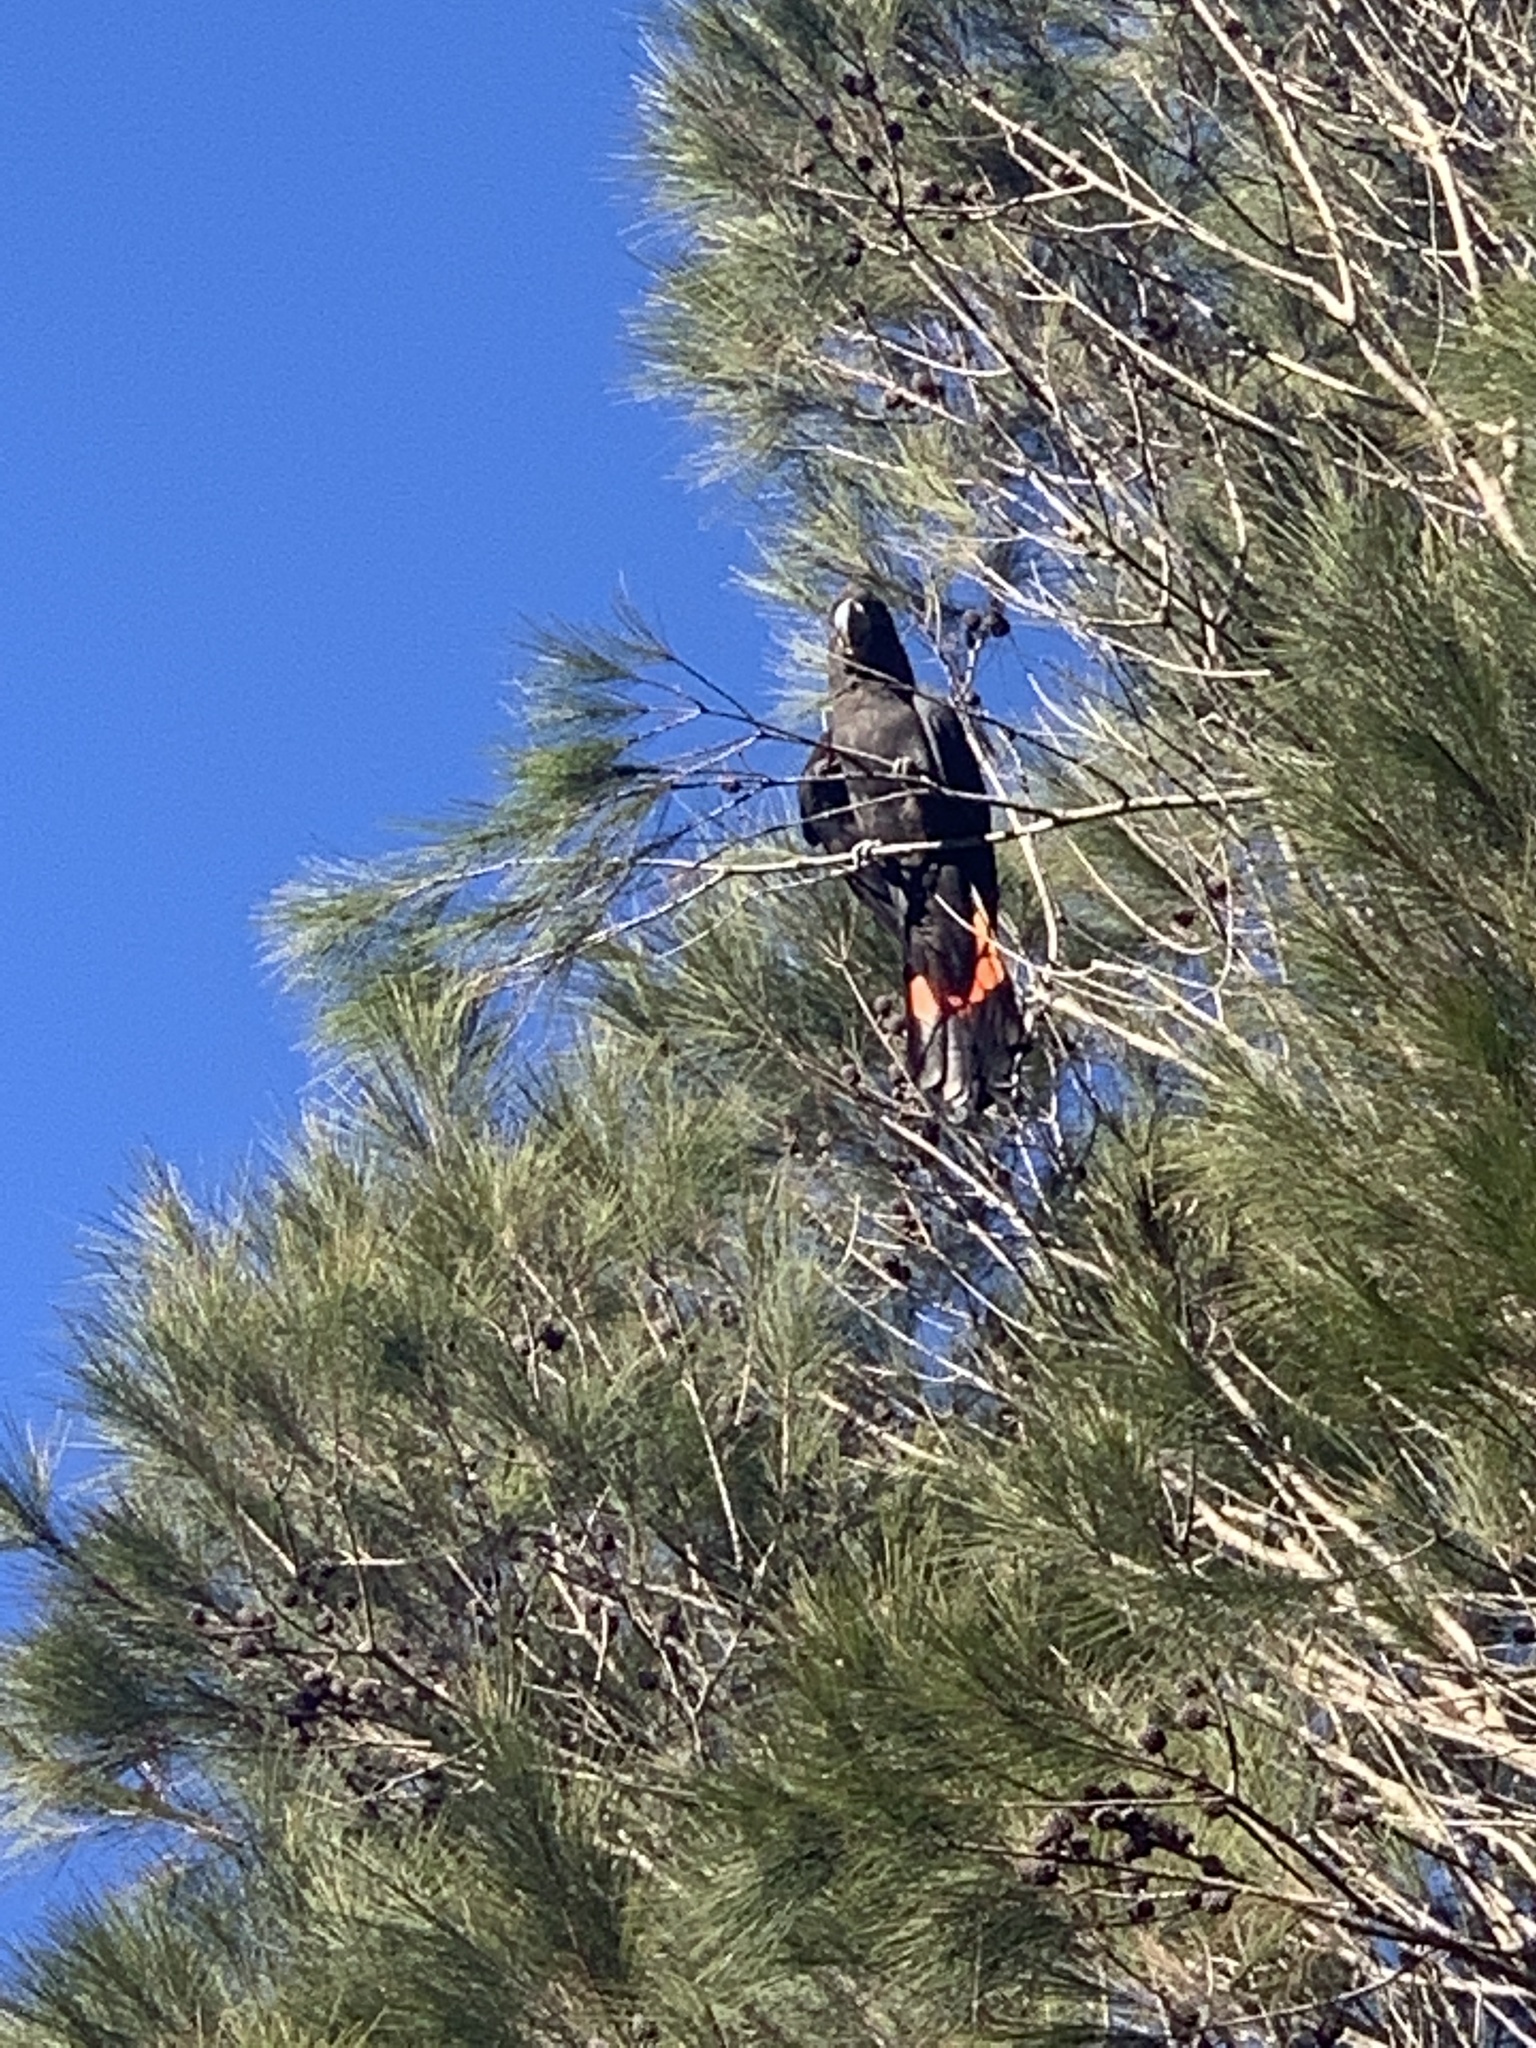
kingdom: Animalia
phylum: Chordata
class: Aves
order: Psittaciformes
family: Psittacidae
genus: Calyptorhynchus
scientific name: Calyptorhynchus lathami
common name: Glossy black cockatoo
